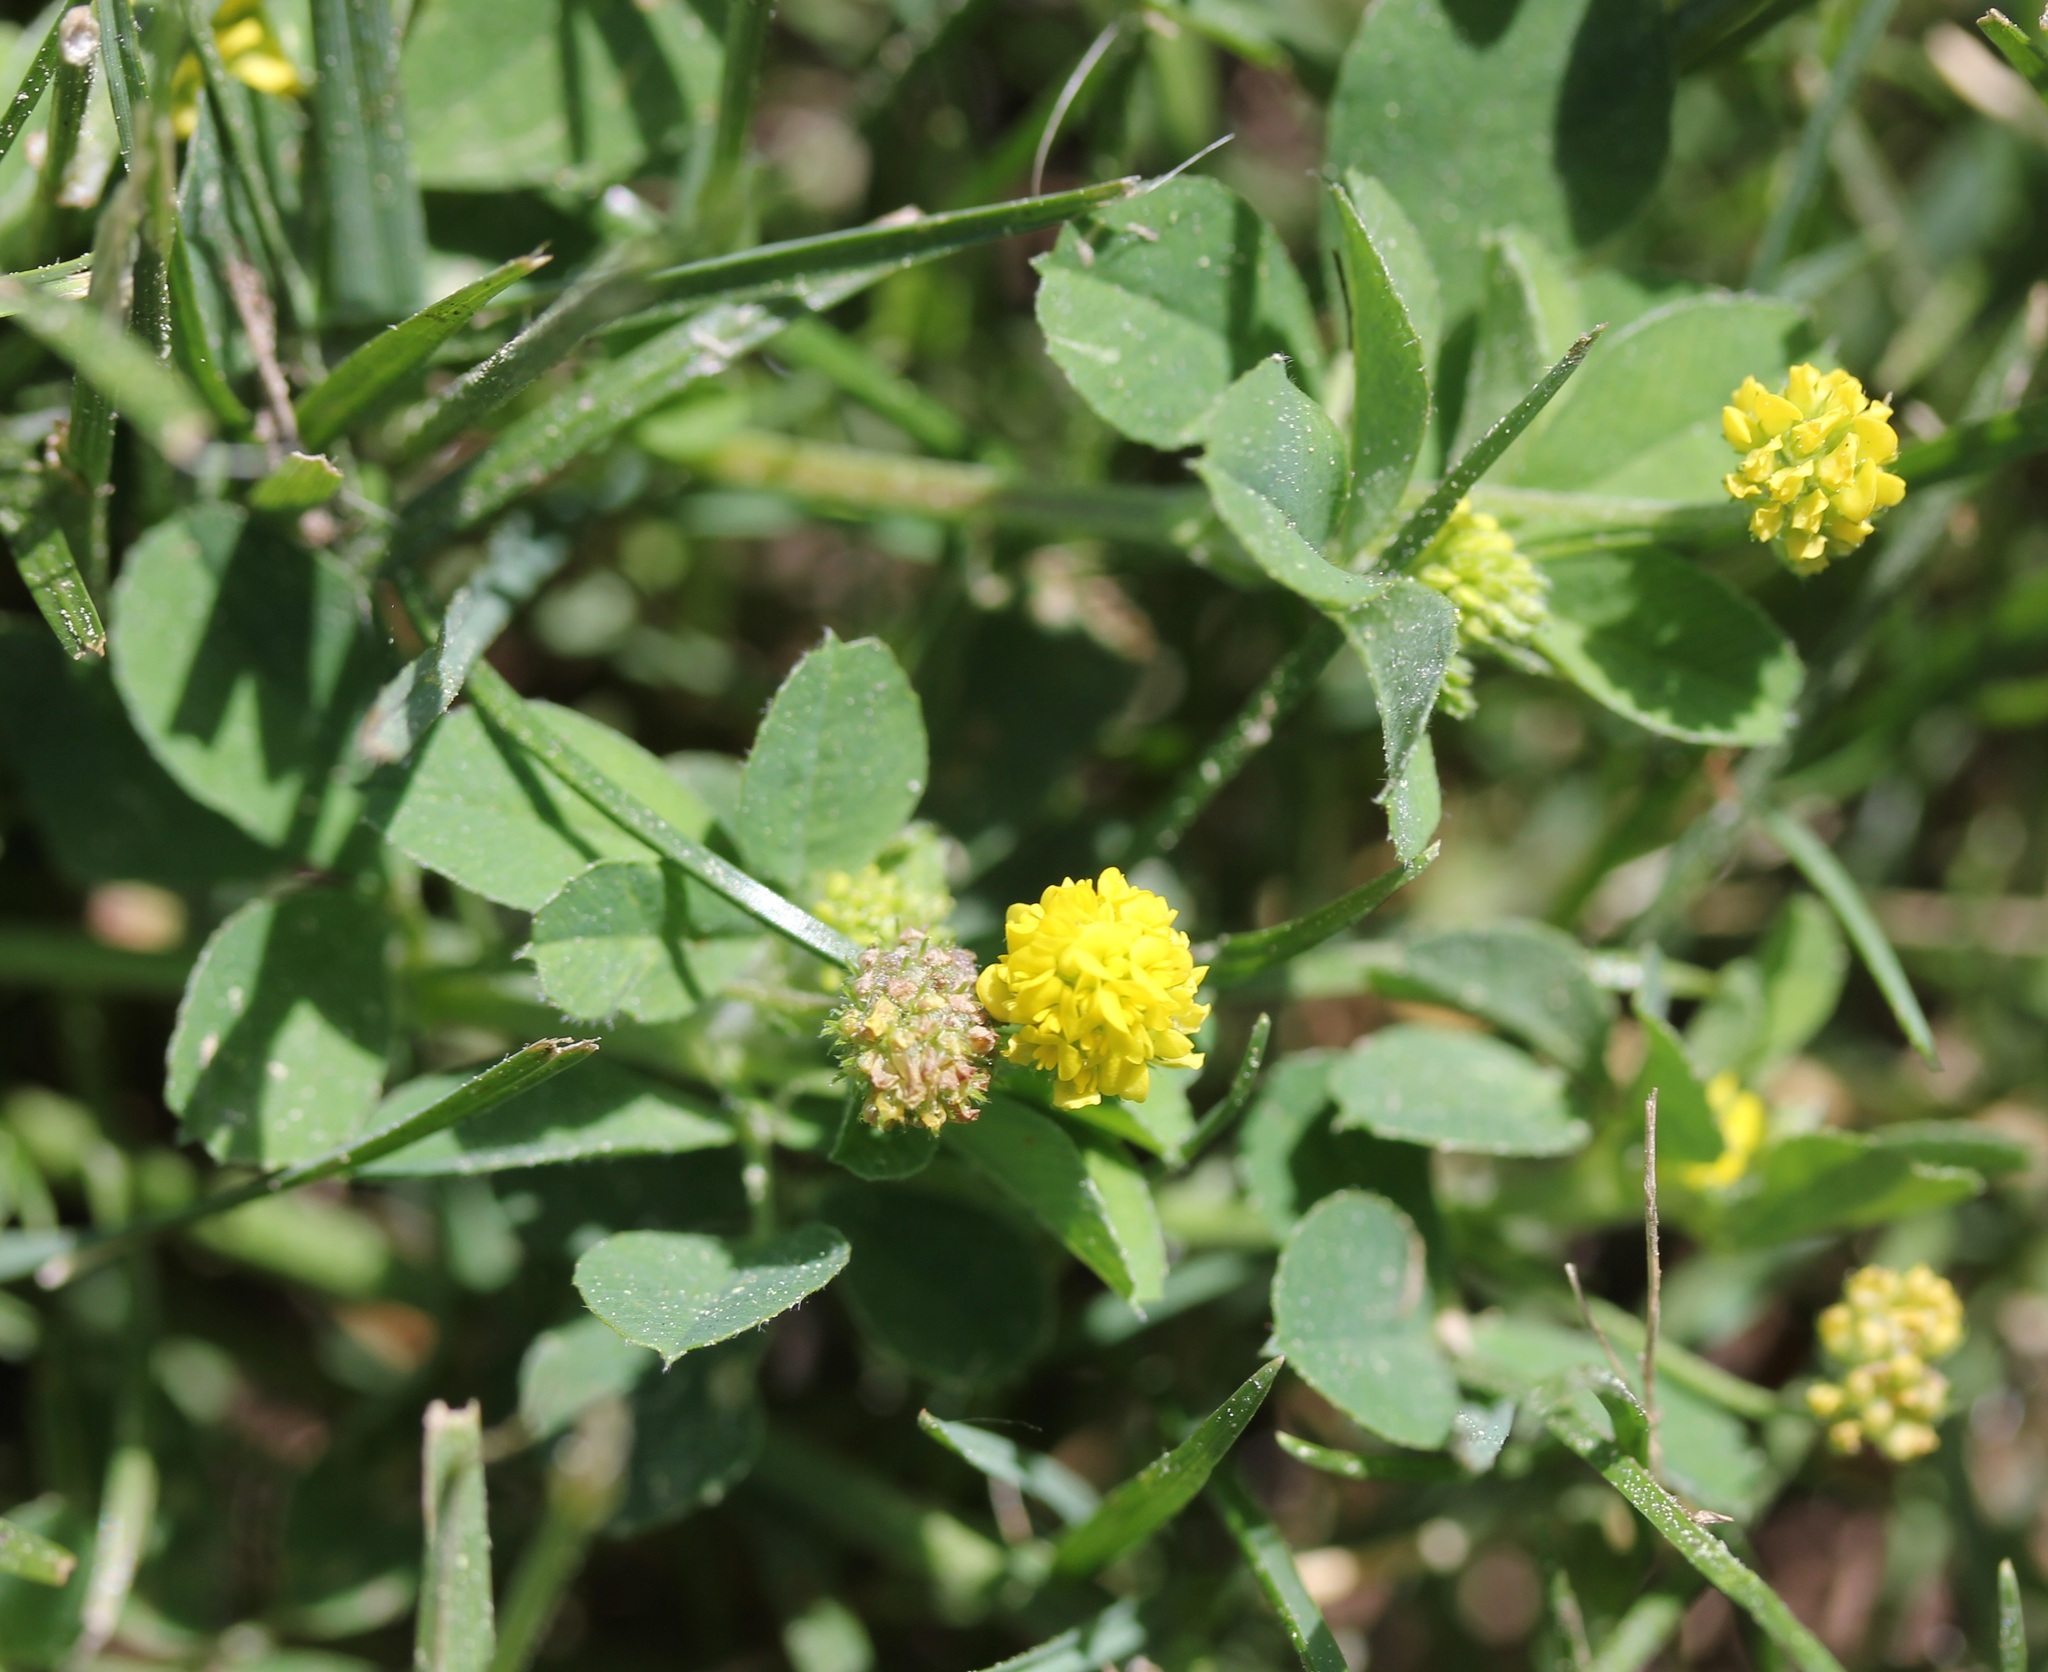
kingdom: Plantae
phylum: Tracheophyta
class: Magnoliopsida
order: Fabales
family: Fabaceae
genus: Medicago
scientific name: Medicago lupulina
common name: Black medick
